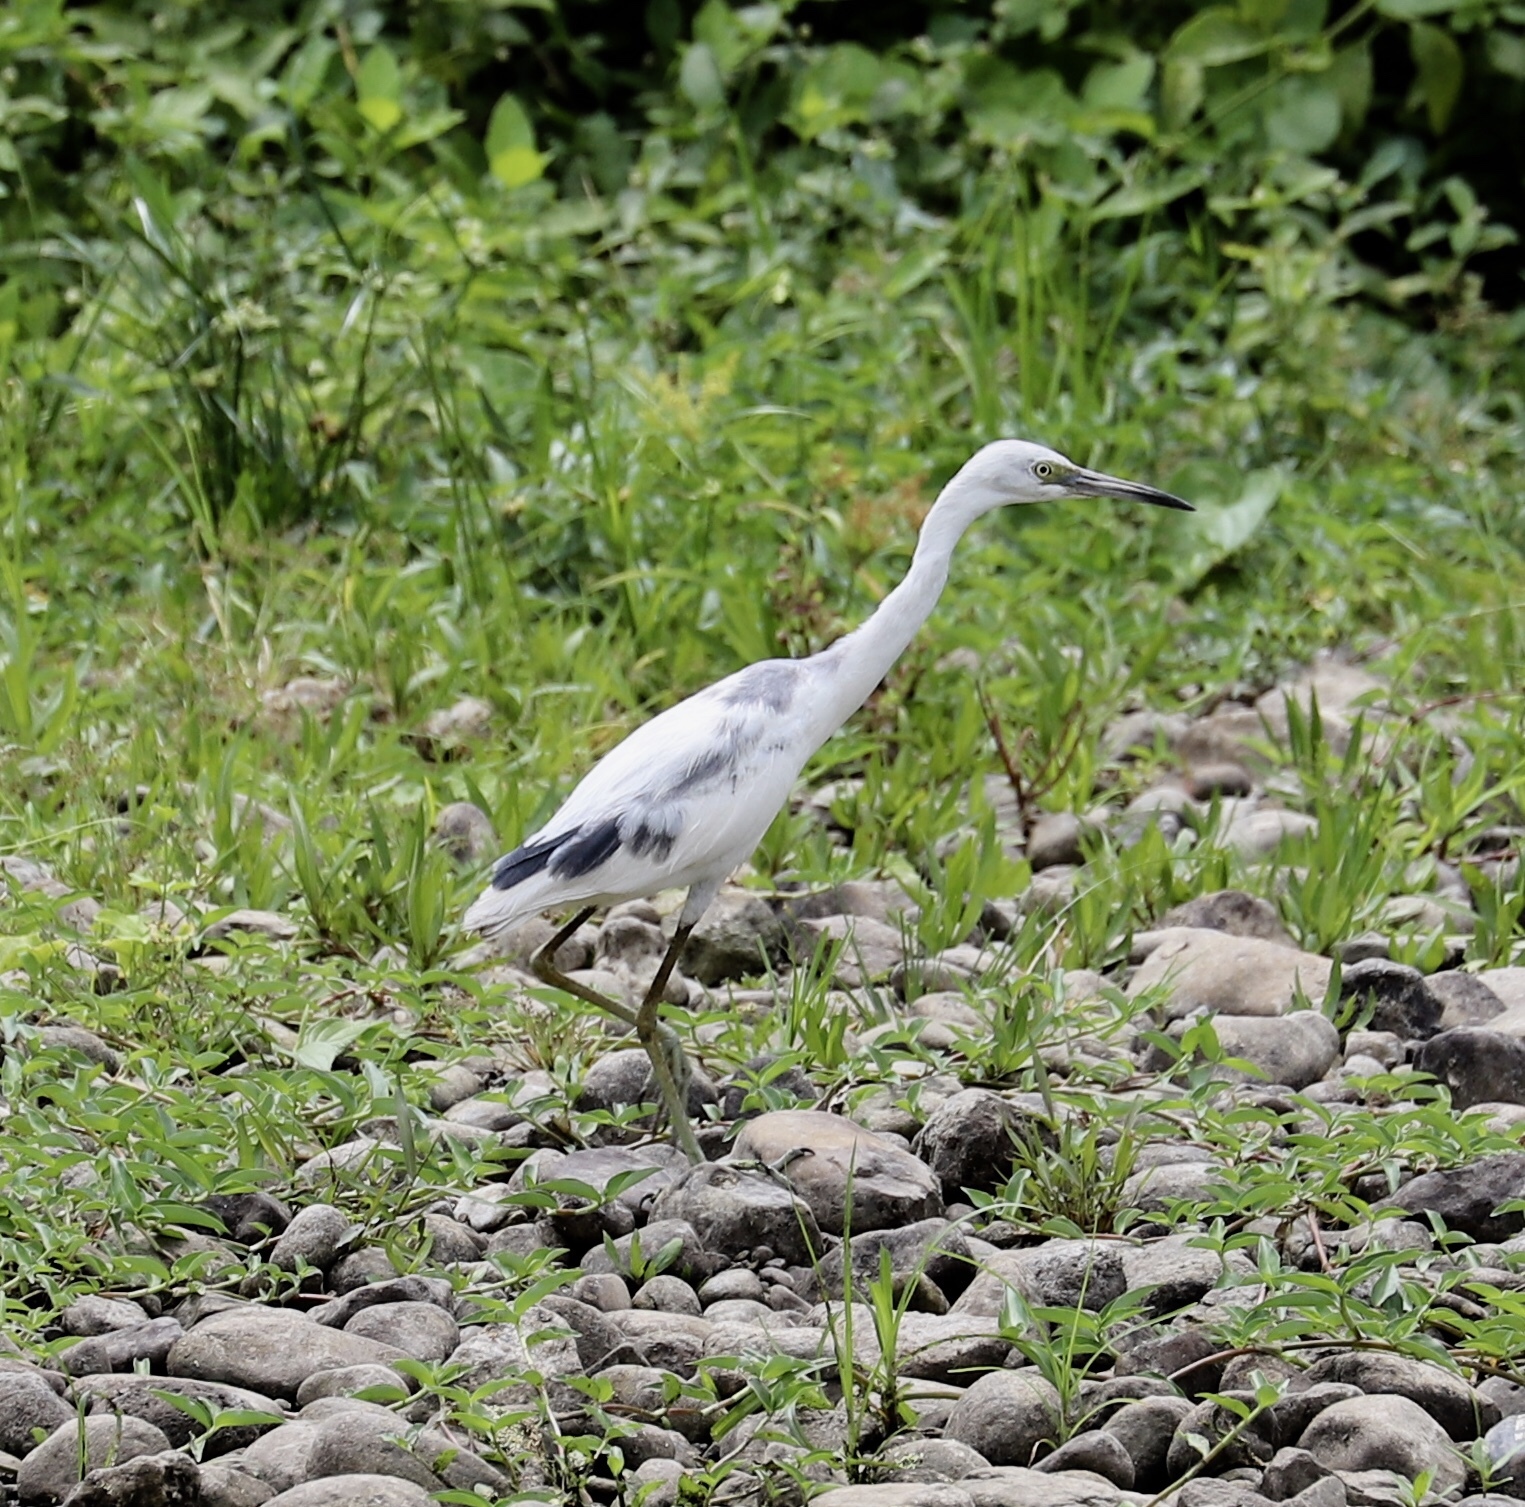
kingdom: Animalia
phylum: Chordata
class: Aves
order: Pelecaniformes
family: Ardeidae
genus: Egretta
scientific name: Egretta caerulea
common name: Little blue heron
